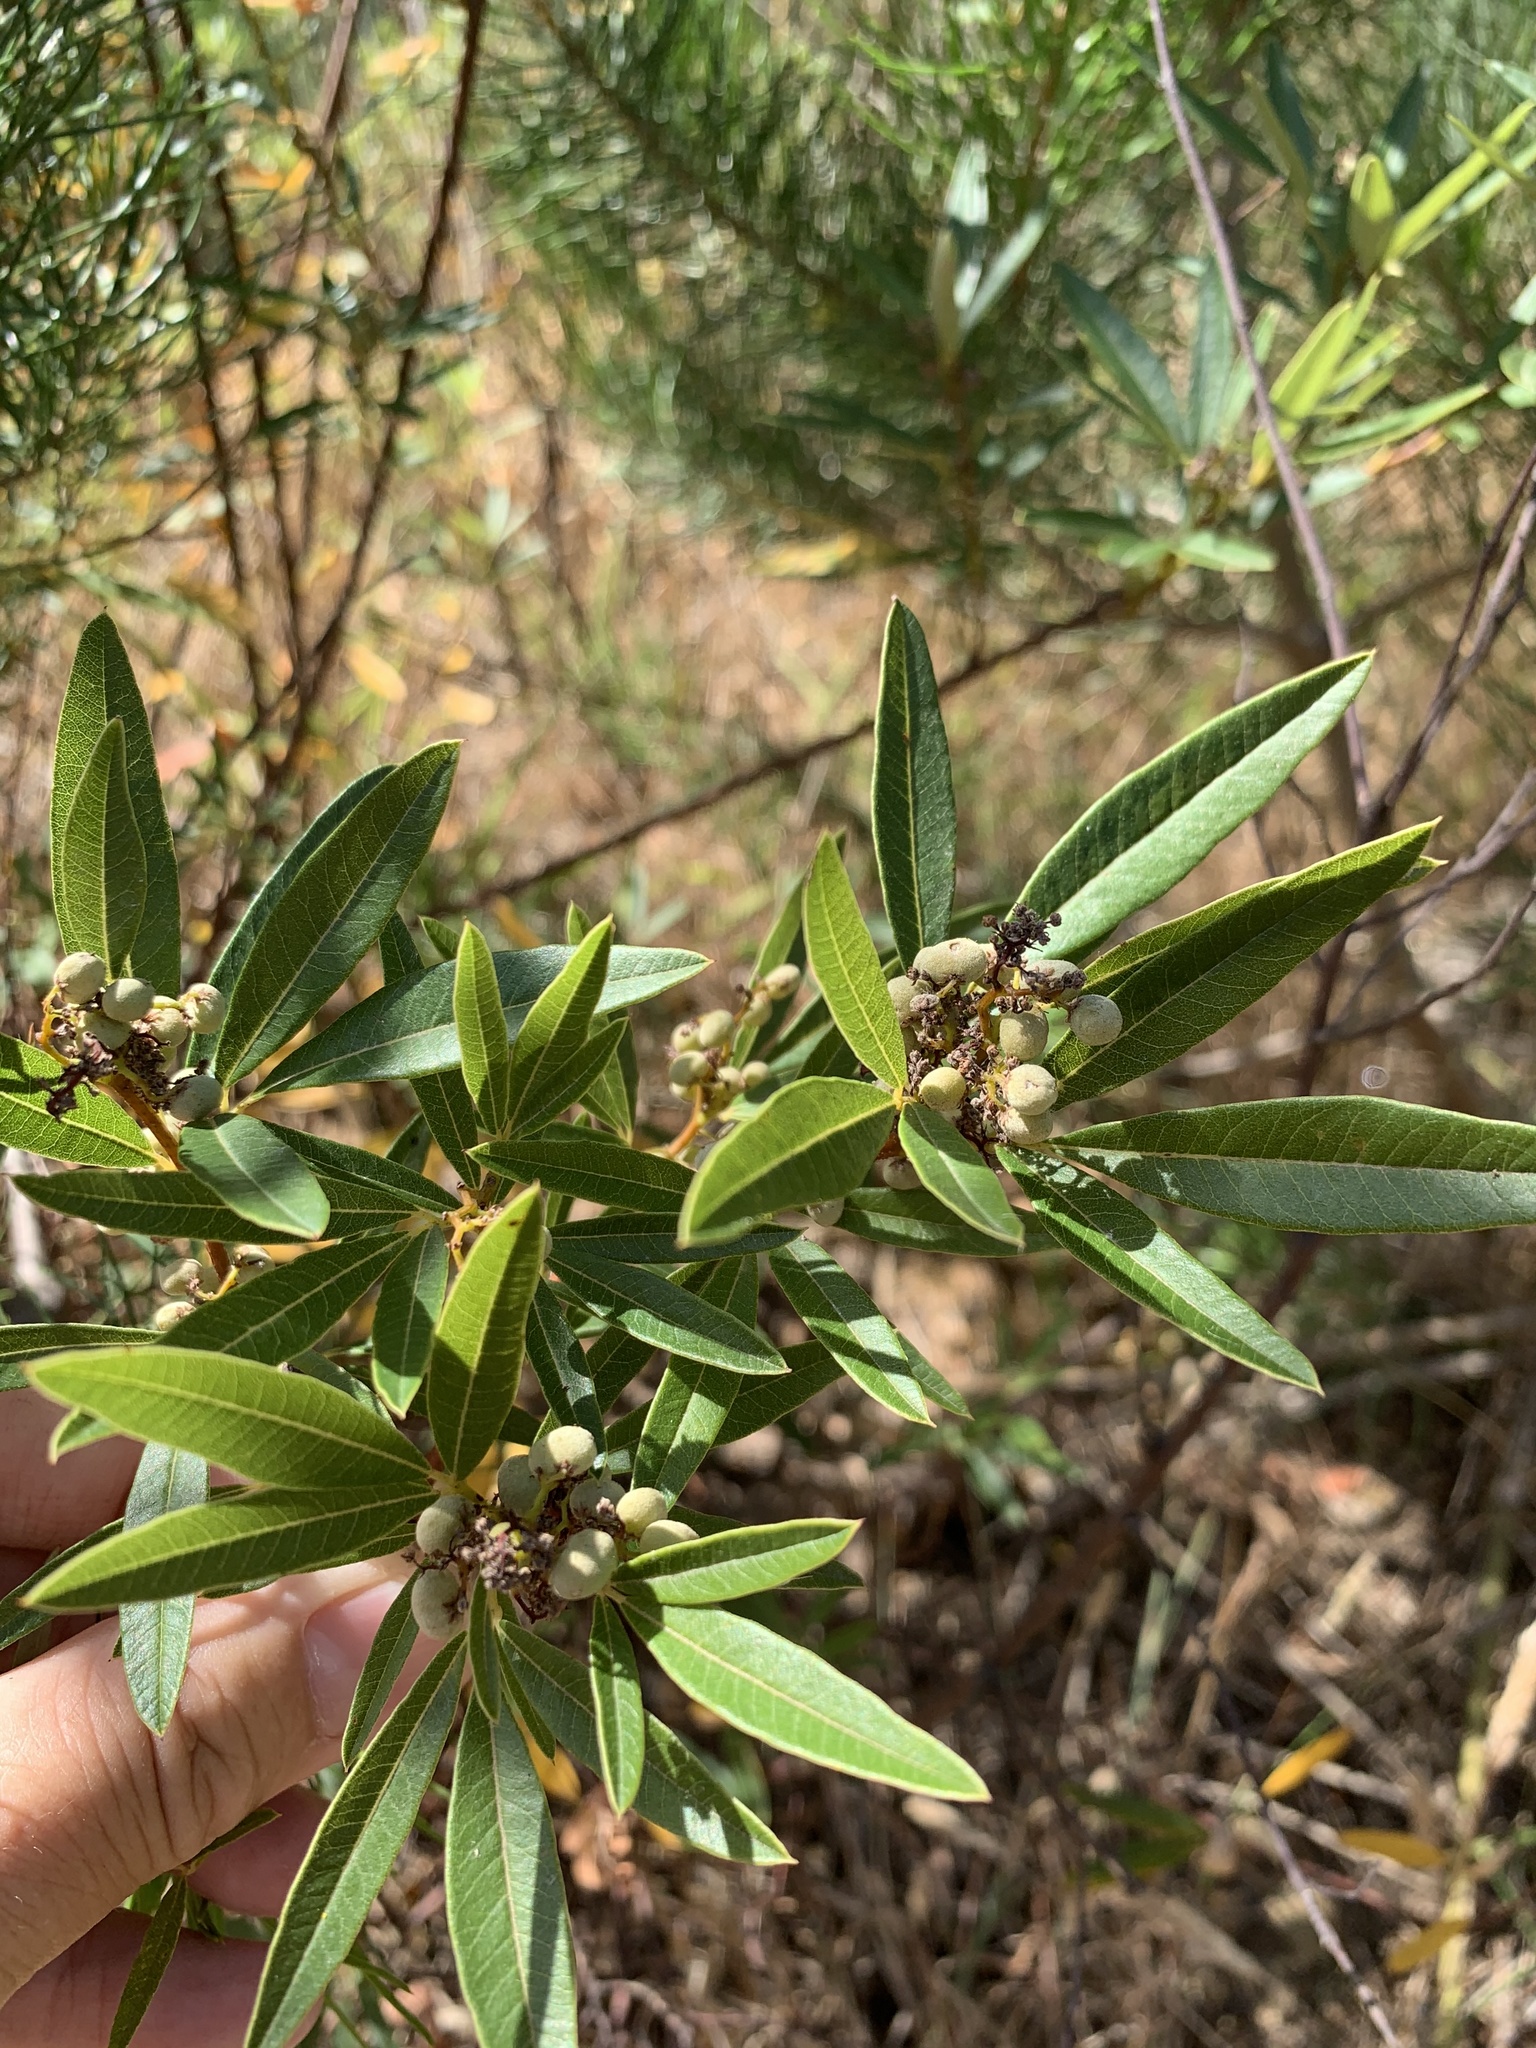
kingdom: Plantae
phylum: Tracheophyta
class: Magnoliopsida
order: Sapindales
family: Anacardiaceae
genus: Searsia
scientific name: Searsia angustifolia
